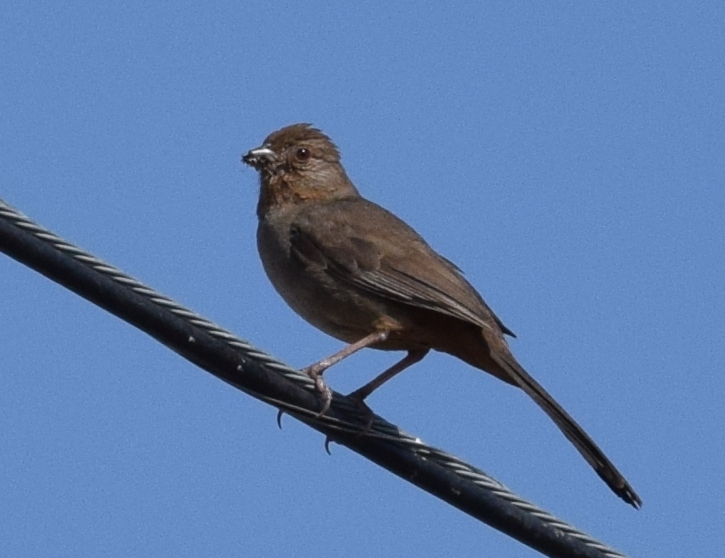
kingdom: Animalia
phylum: Chordata
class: Aves
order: Passeriformes
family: Passerellidae
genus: Melozone
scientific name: Melozone crissalis
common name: California towhee
